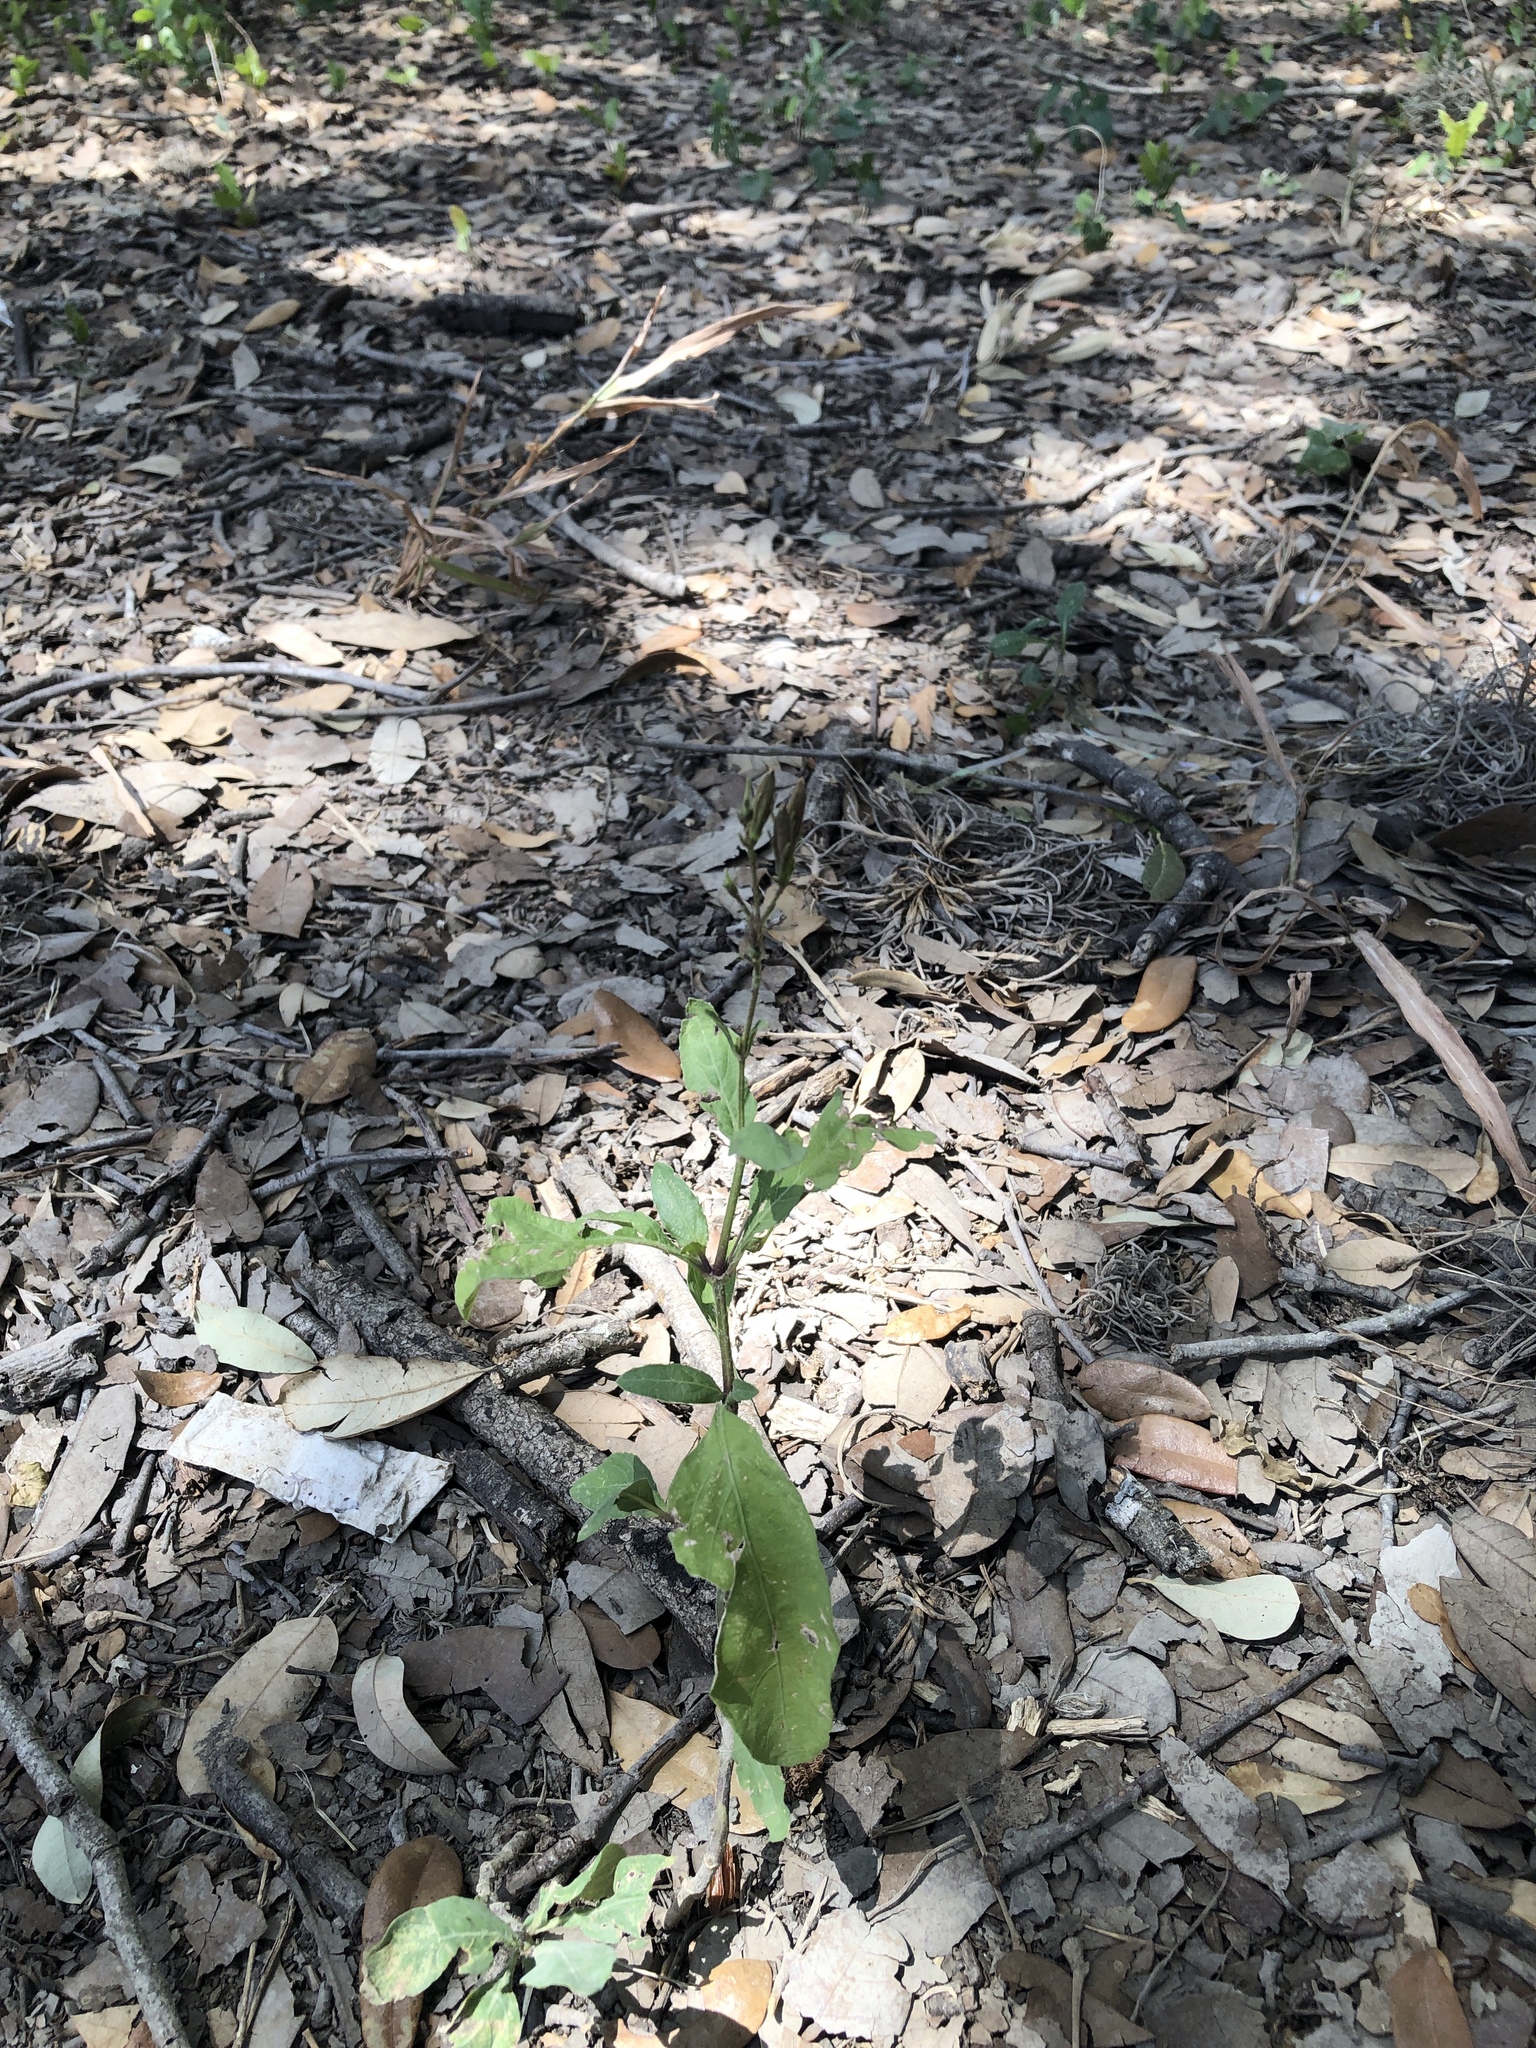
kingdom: Plantae
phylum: Tracheophyta
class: Magnoliopsida
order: Lamiales
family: Acanthaceae
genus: Ruellia
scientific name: Ruellia ciliatiflora
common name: Hairyflower wild petunia
